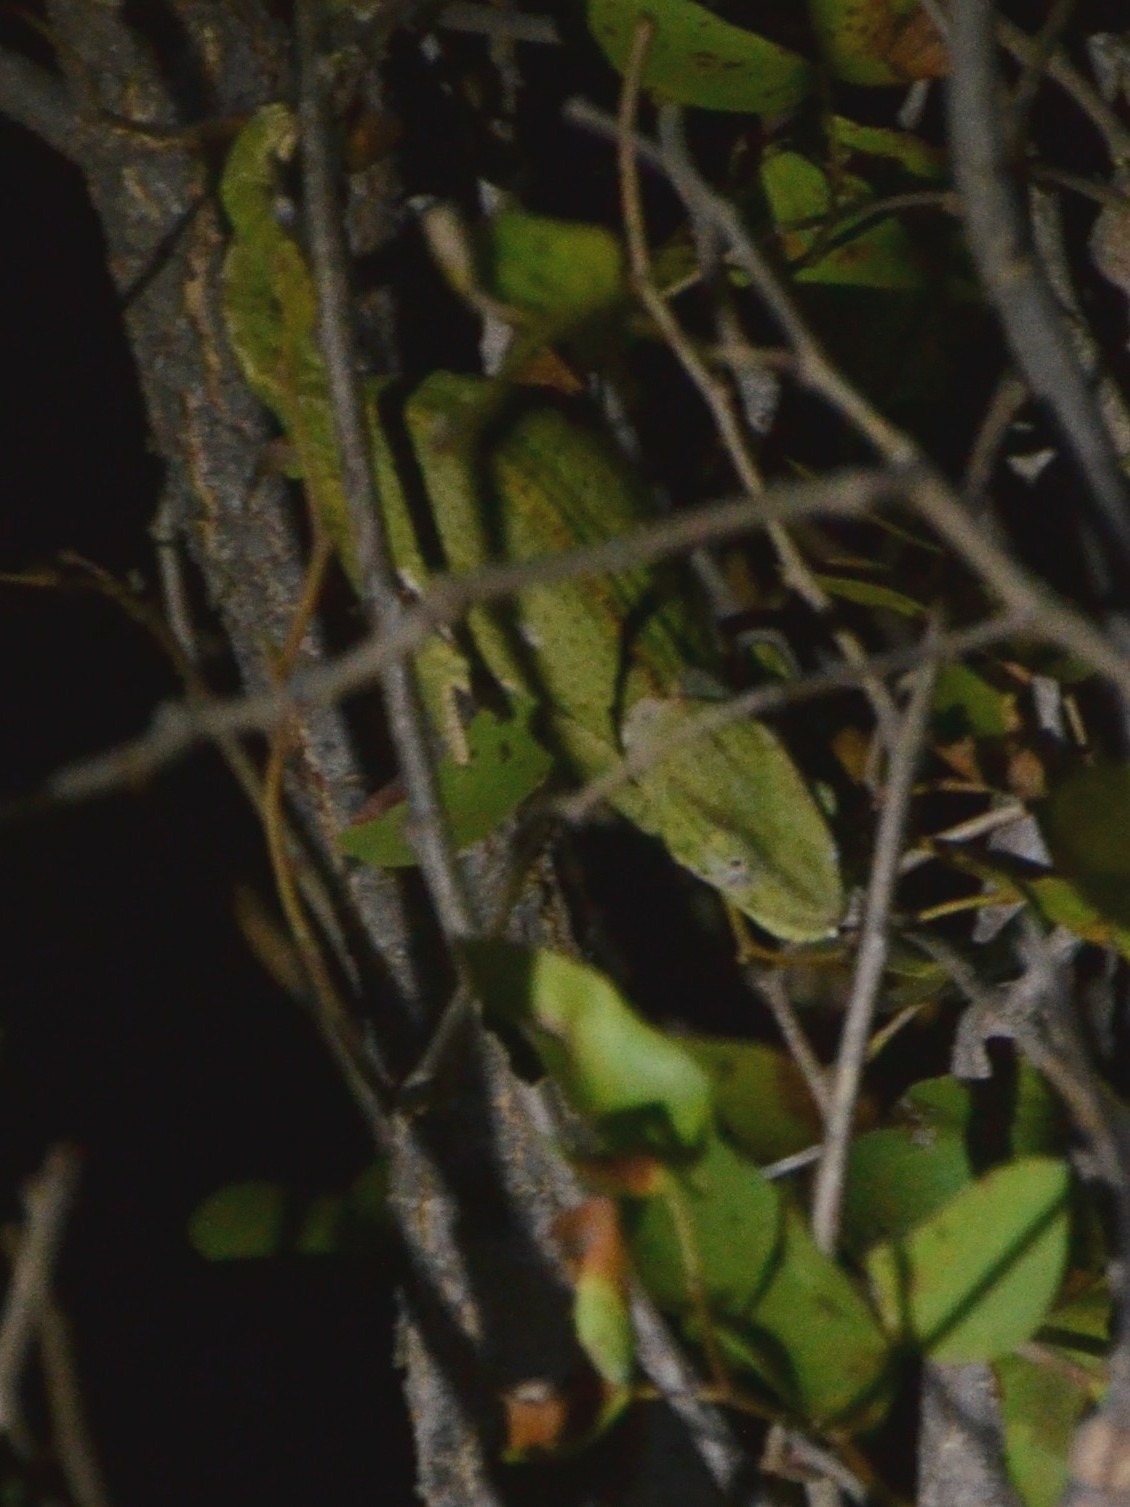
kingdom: Animalia
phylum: Chordata
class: Squamata
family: Chamaeleonidae
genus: Chamaeleo
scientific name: Chamaeleo dilepis
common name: Flapneck chameleon
